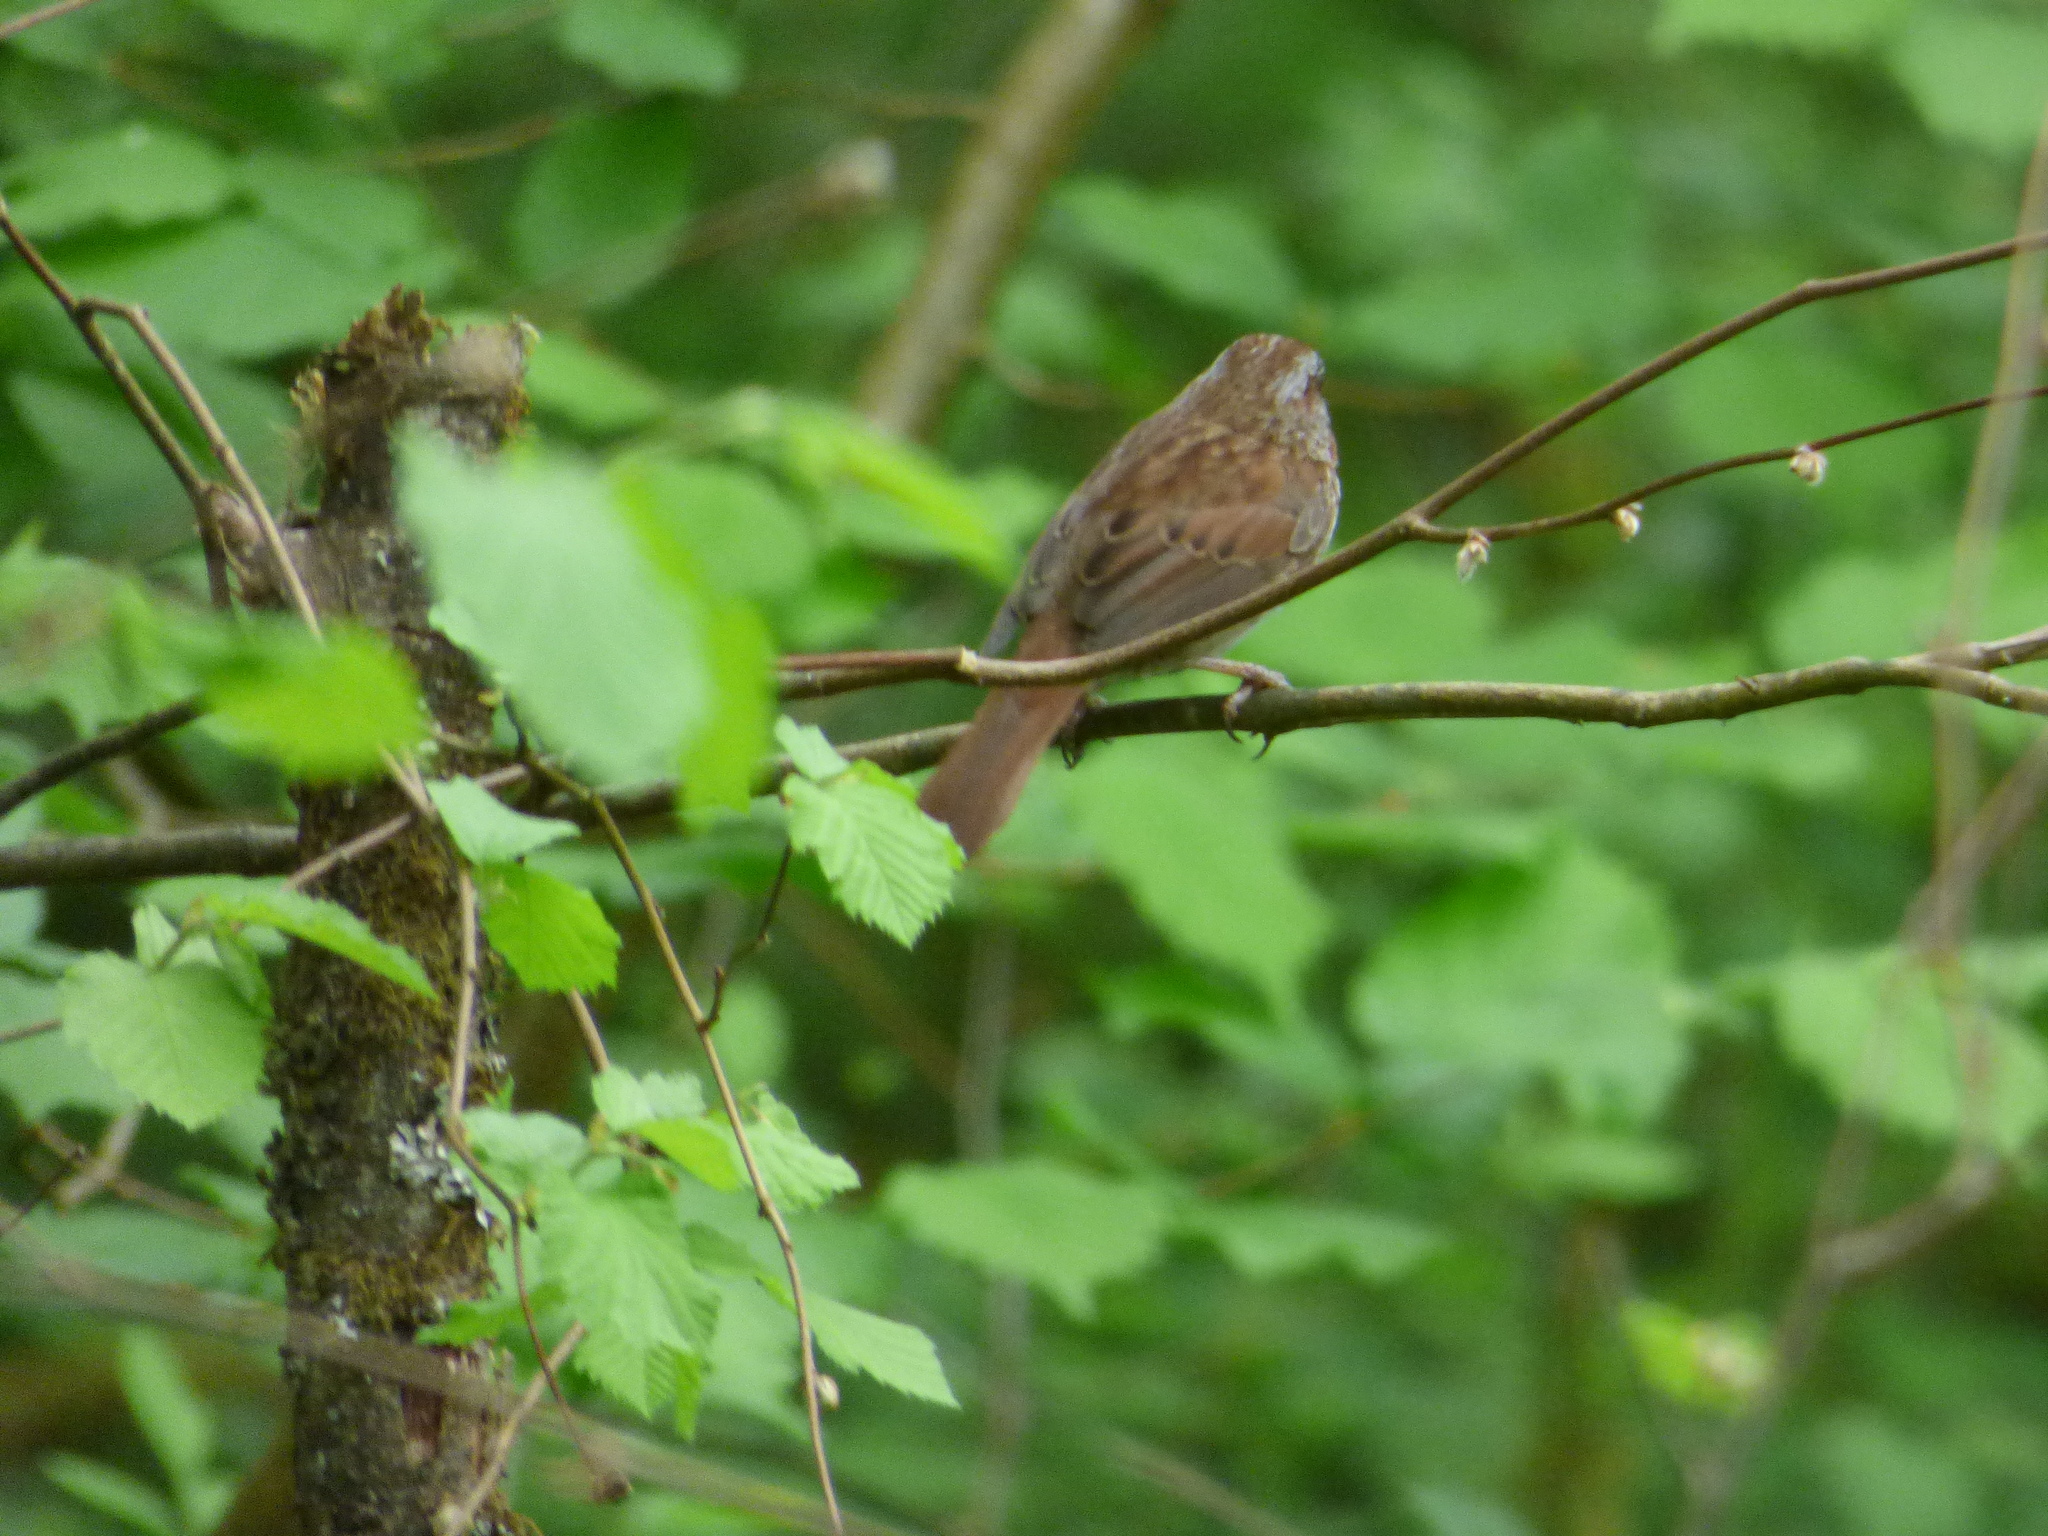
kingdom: Animalia
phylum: Chordata
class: Aves
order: Passeriformes
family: Passerellidae
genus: Melospiza
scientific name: Melospiza melodia
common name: Song sparrow
